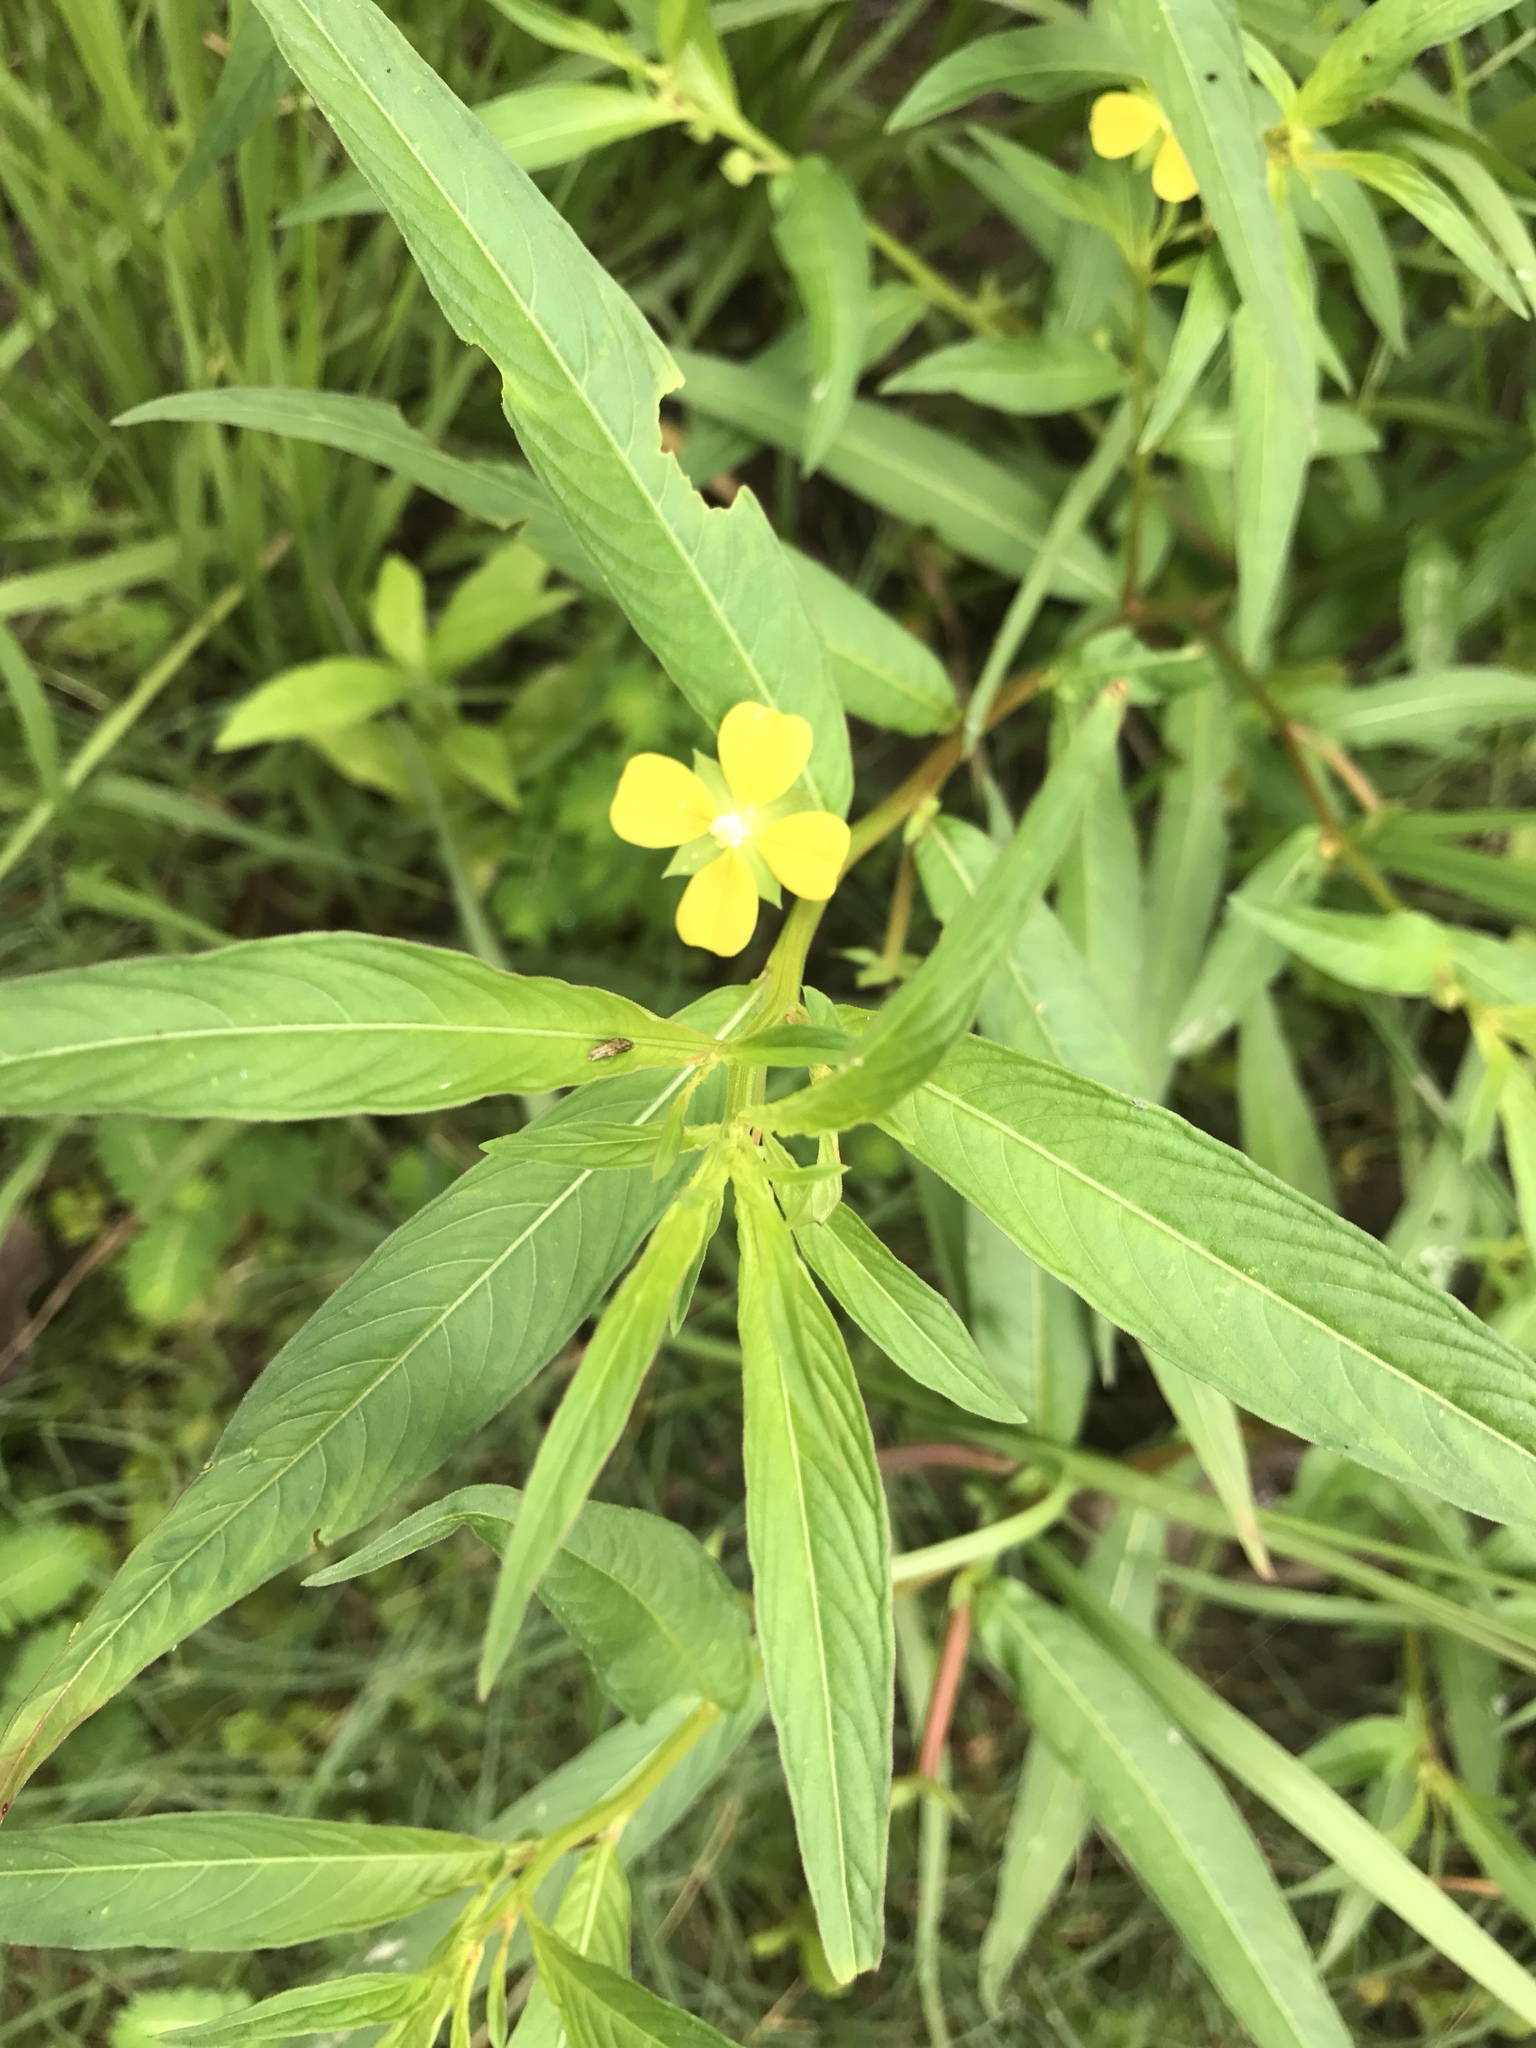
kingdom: Plantae
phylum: Tracheophyta
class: Magnoliopsida
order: Myrtales
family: Onagraceae
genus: Ludwigia
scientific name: Ludwigia octovalvis
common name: Water-primrose
